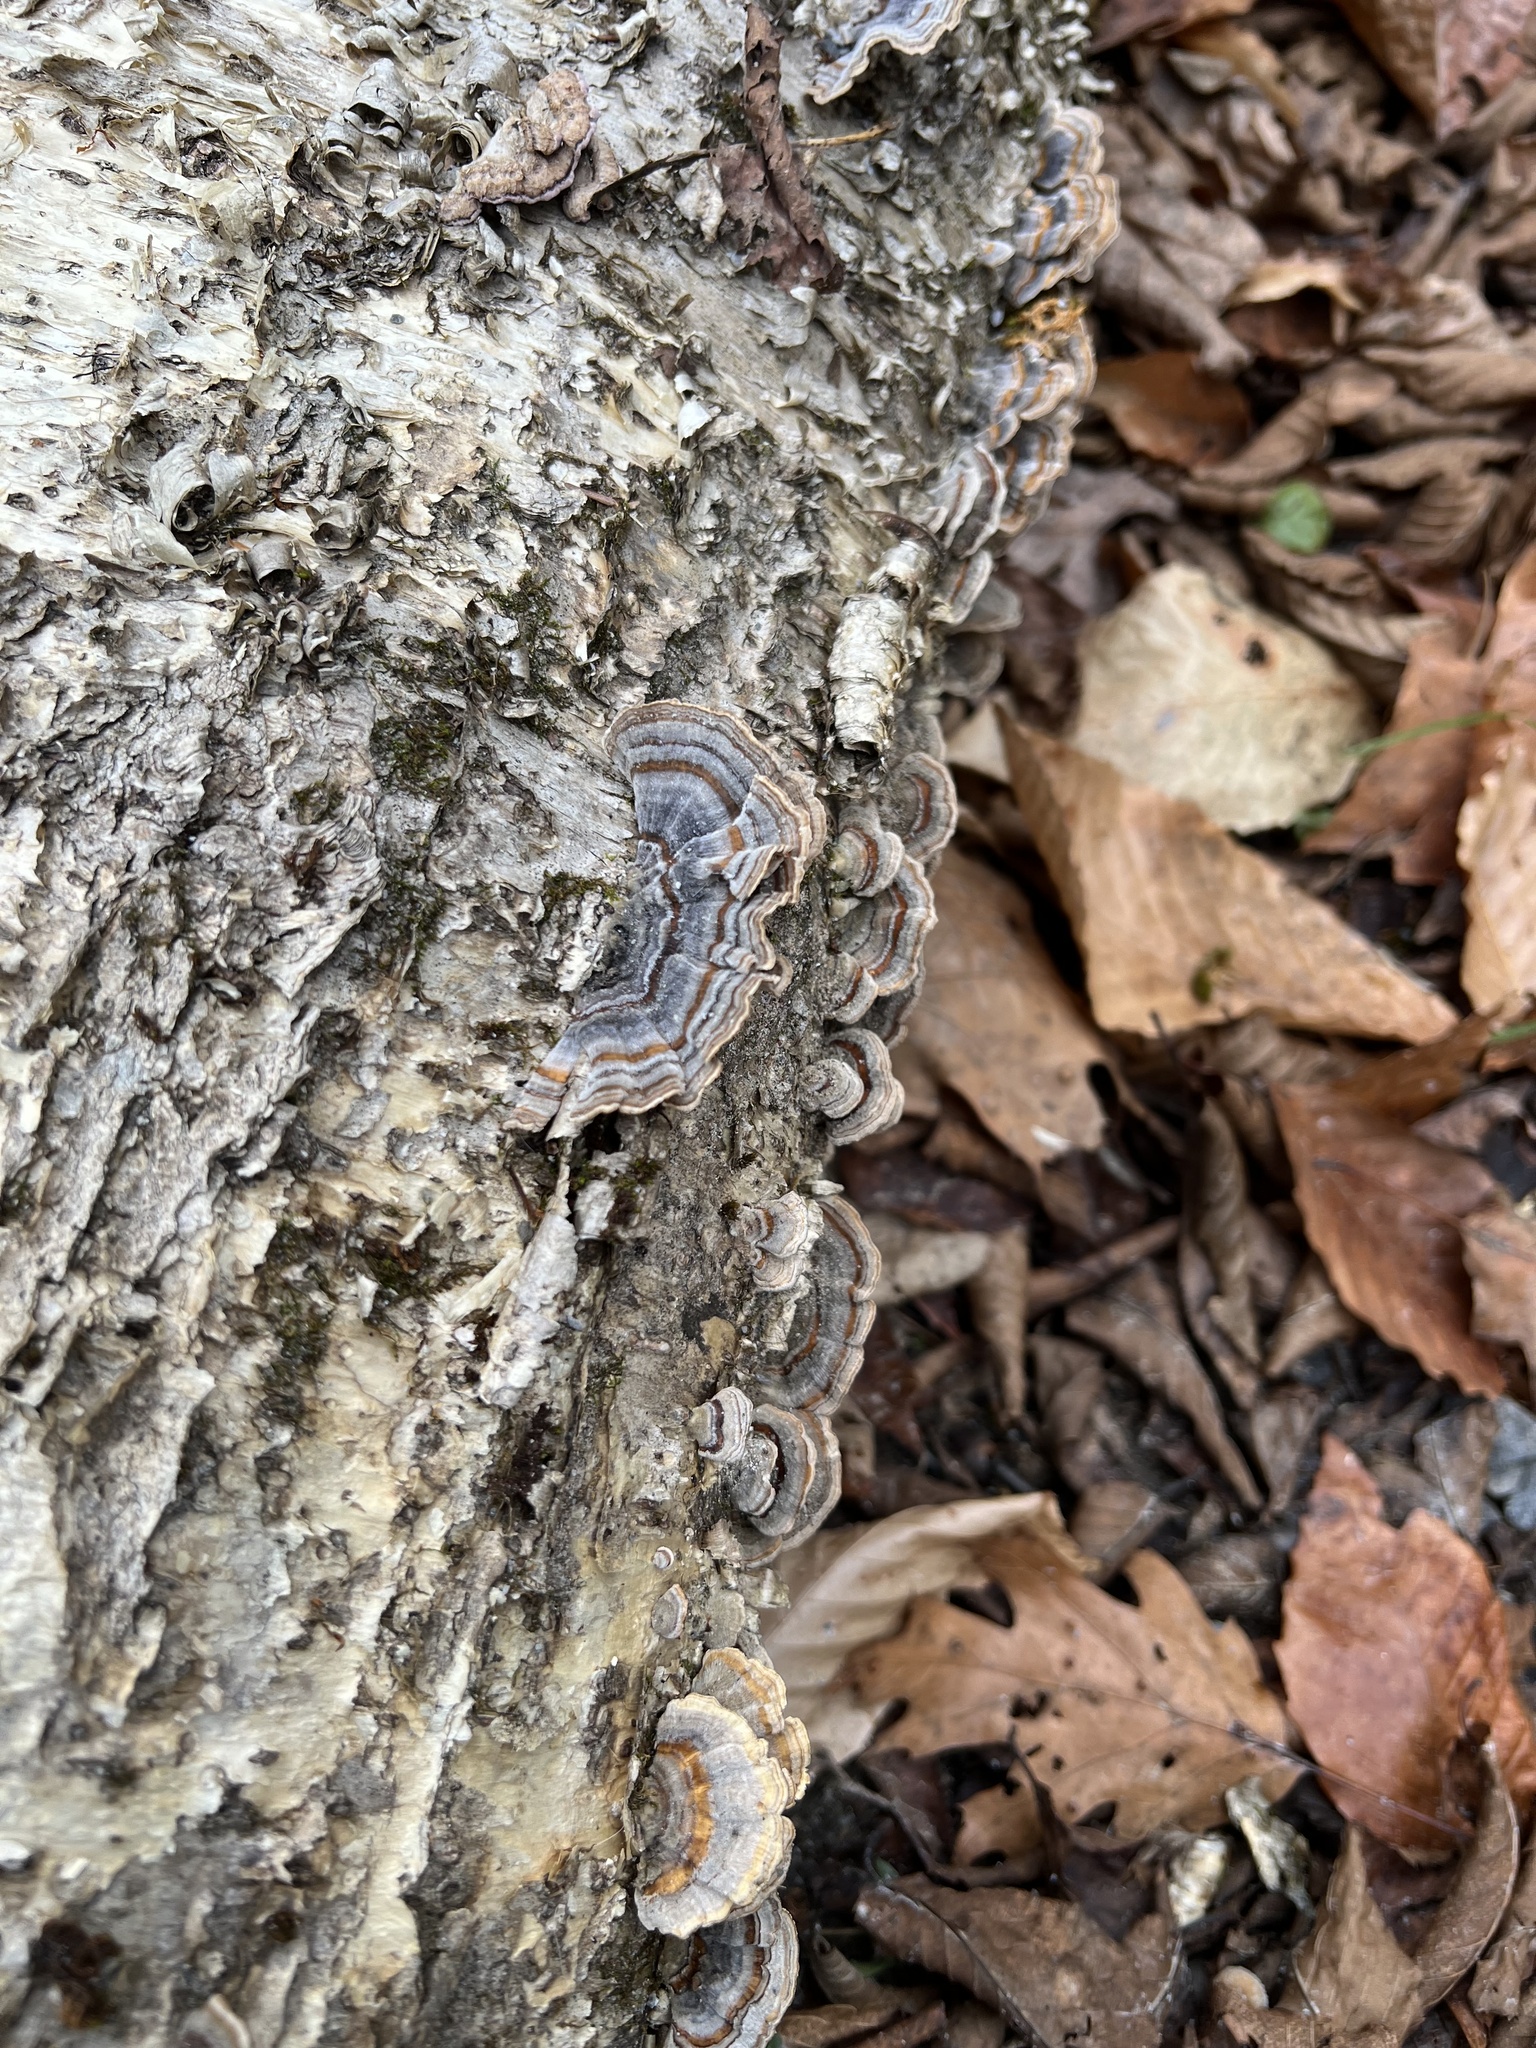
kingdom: Fungi
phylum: Basidiomycota
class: Agaricomycetes
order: Polyporales
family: Polyporaceae
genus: Trametes
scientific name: Trametes versicolor
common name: Turkeytail
